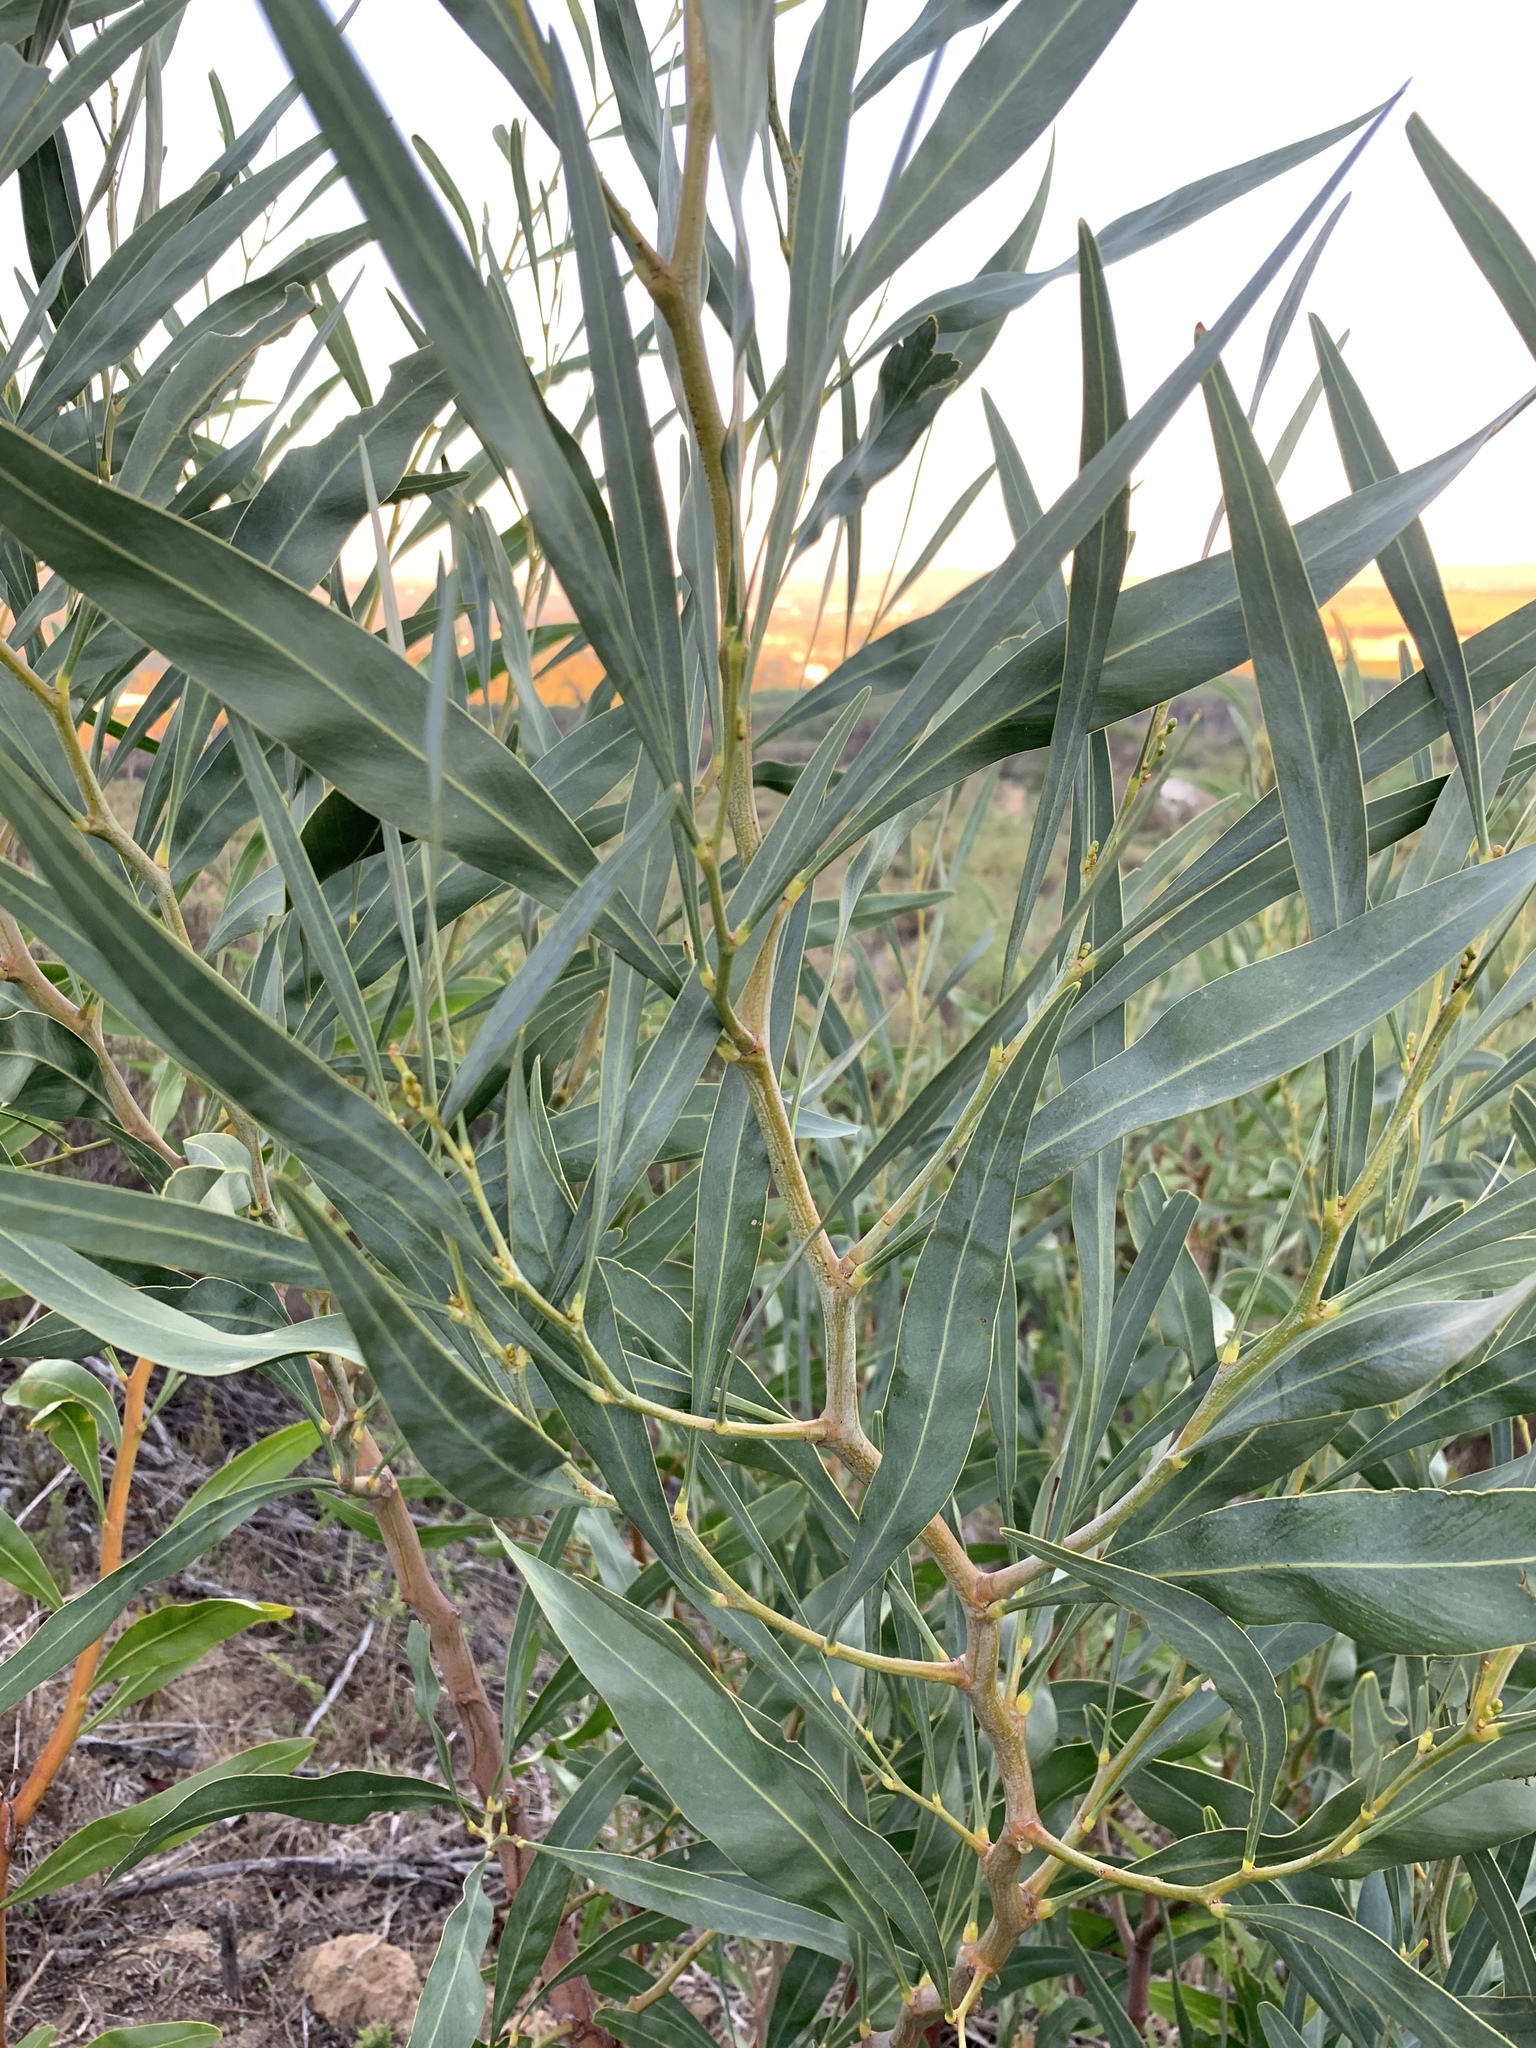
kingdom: Plantae
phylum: Tracheophyta
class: Magnoliopsida
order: Fabales
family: Fabaceae
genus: Acacia
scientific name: Acacia saligna
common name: Orange wattle
